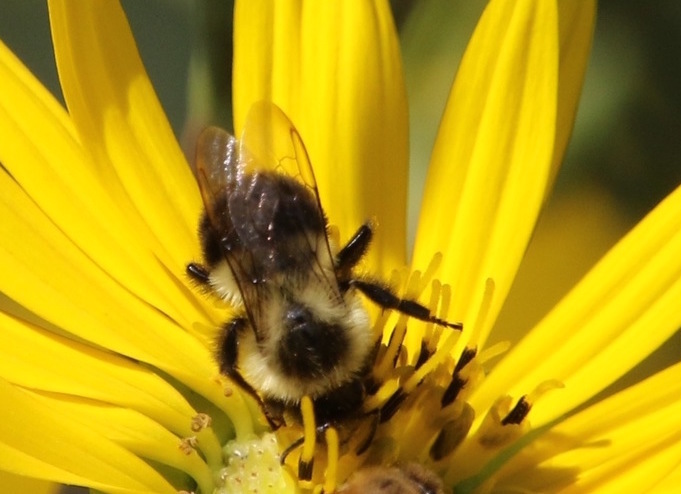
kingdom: Animalia
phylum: Arthropoda
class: Insecta
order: Hymenoptera
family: Apidae
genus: Bombus
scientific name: Bombus impatiens
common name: Common eastern bumble bee
